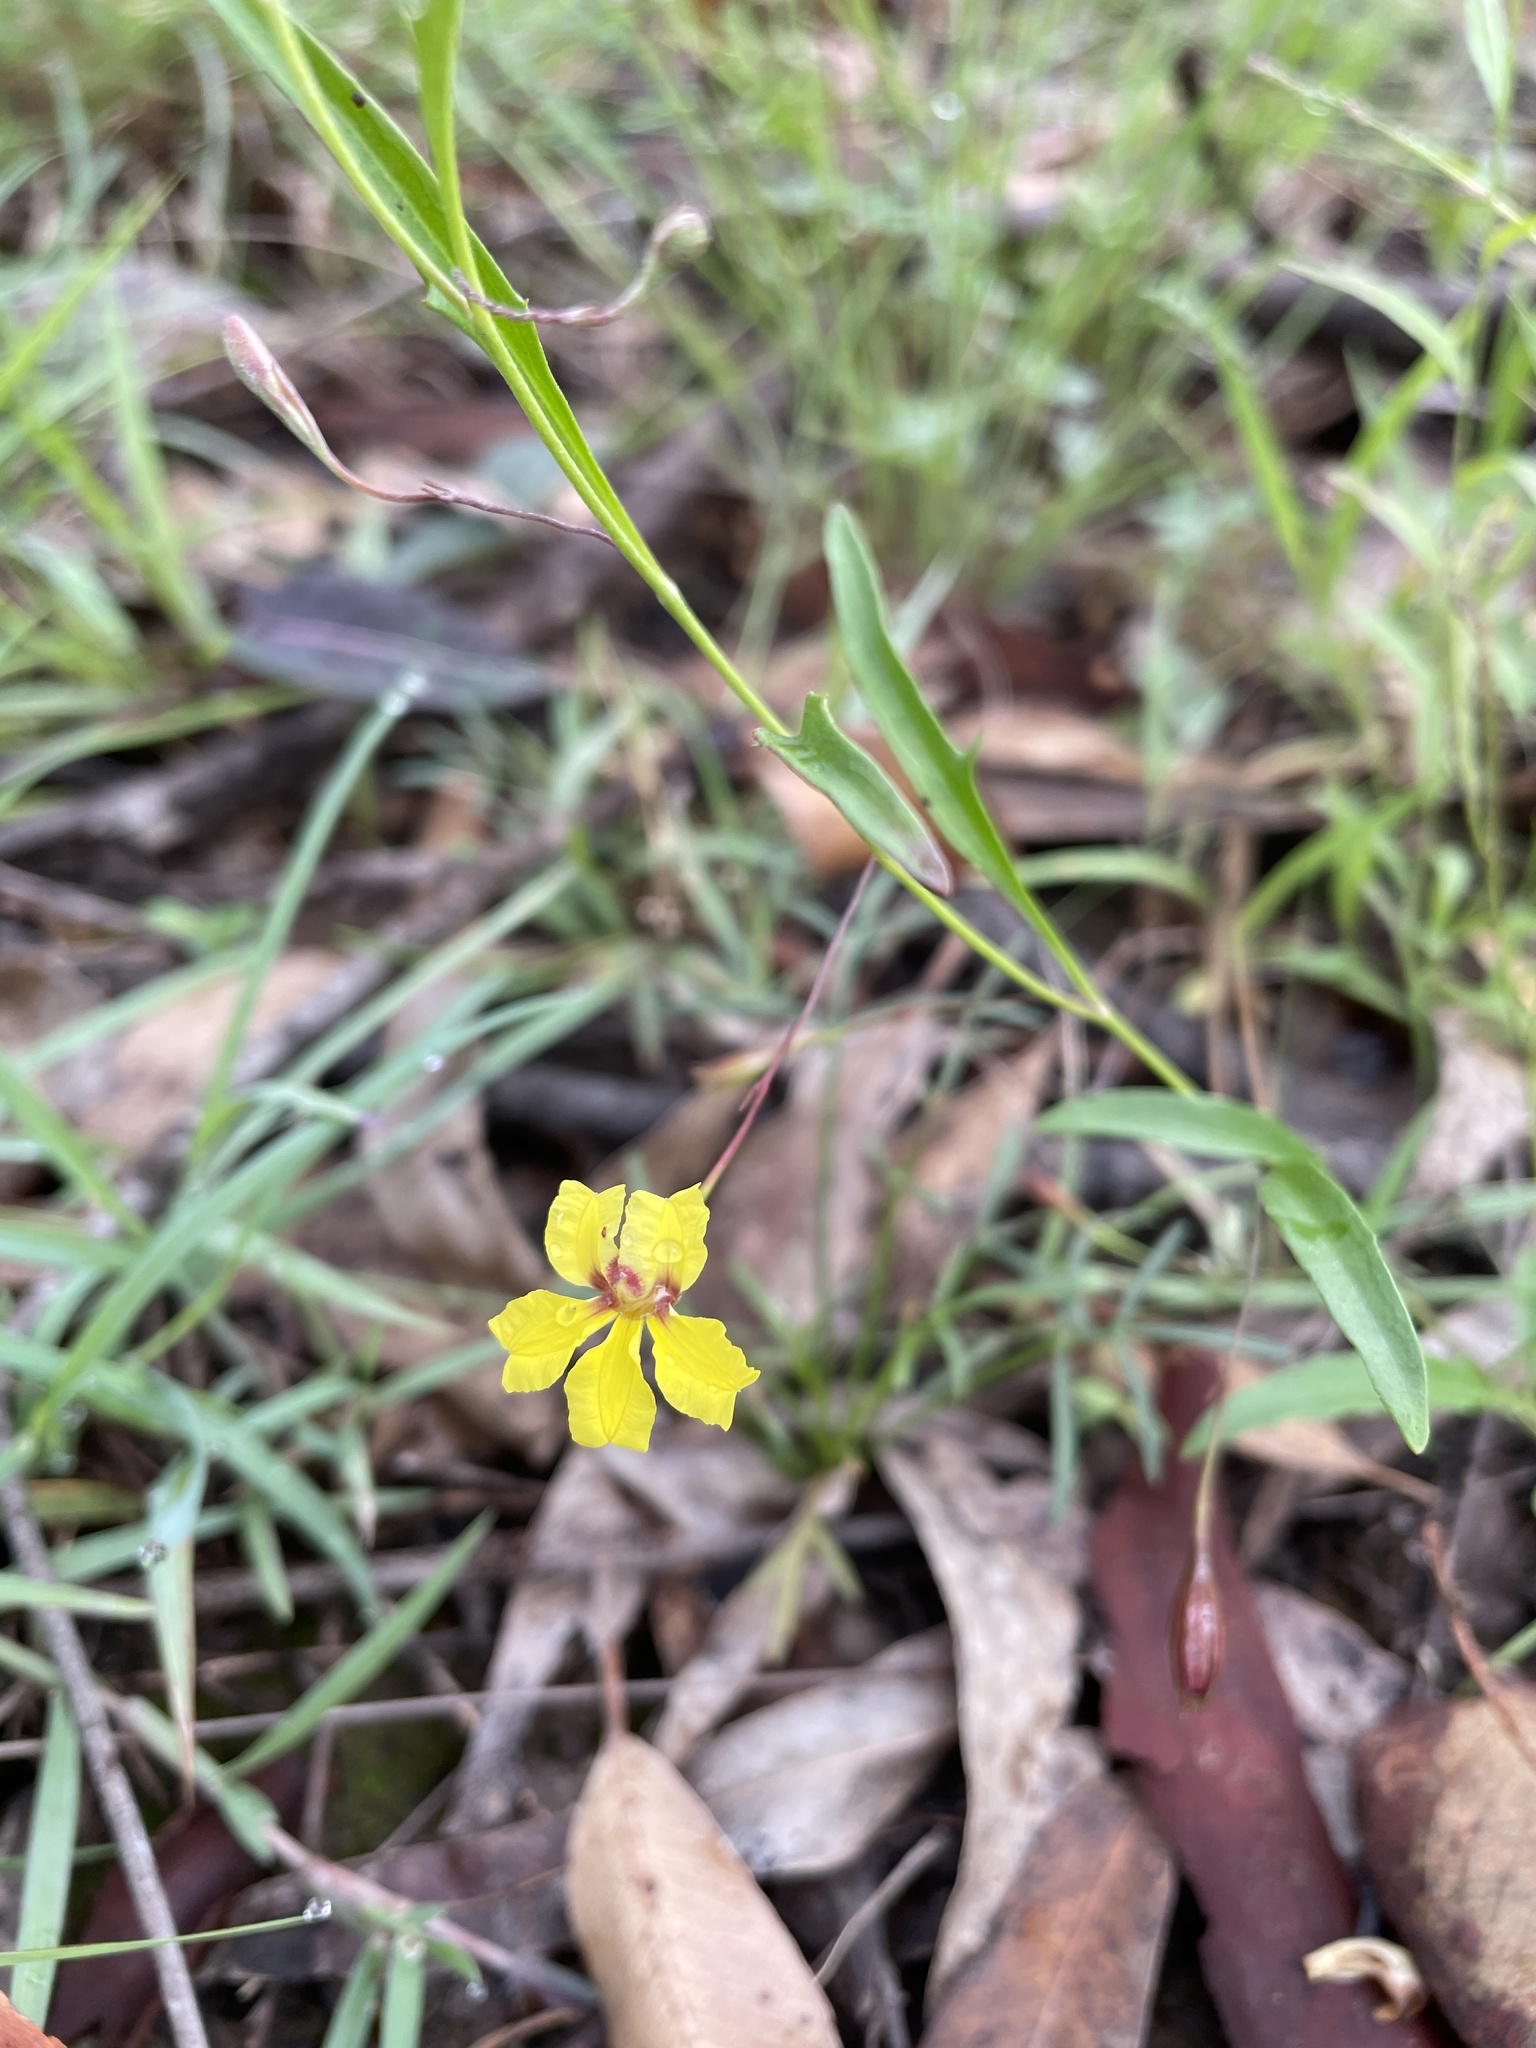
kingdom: Plantae
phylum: Tracheophyta
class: Magnoliopsida
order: Asterales
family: Goodeniaceae
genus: Goodenia
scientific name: Goodenia delicata
